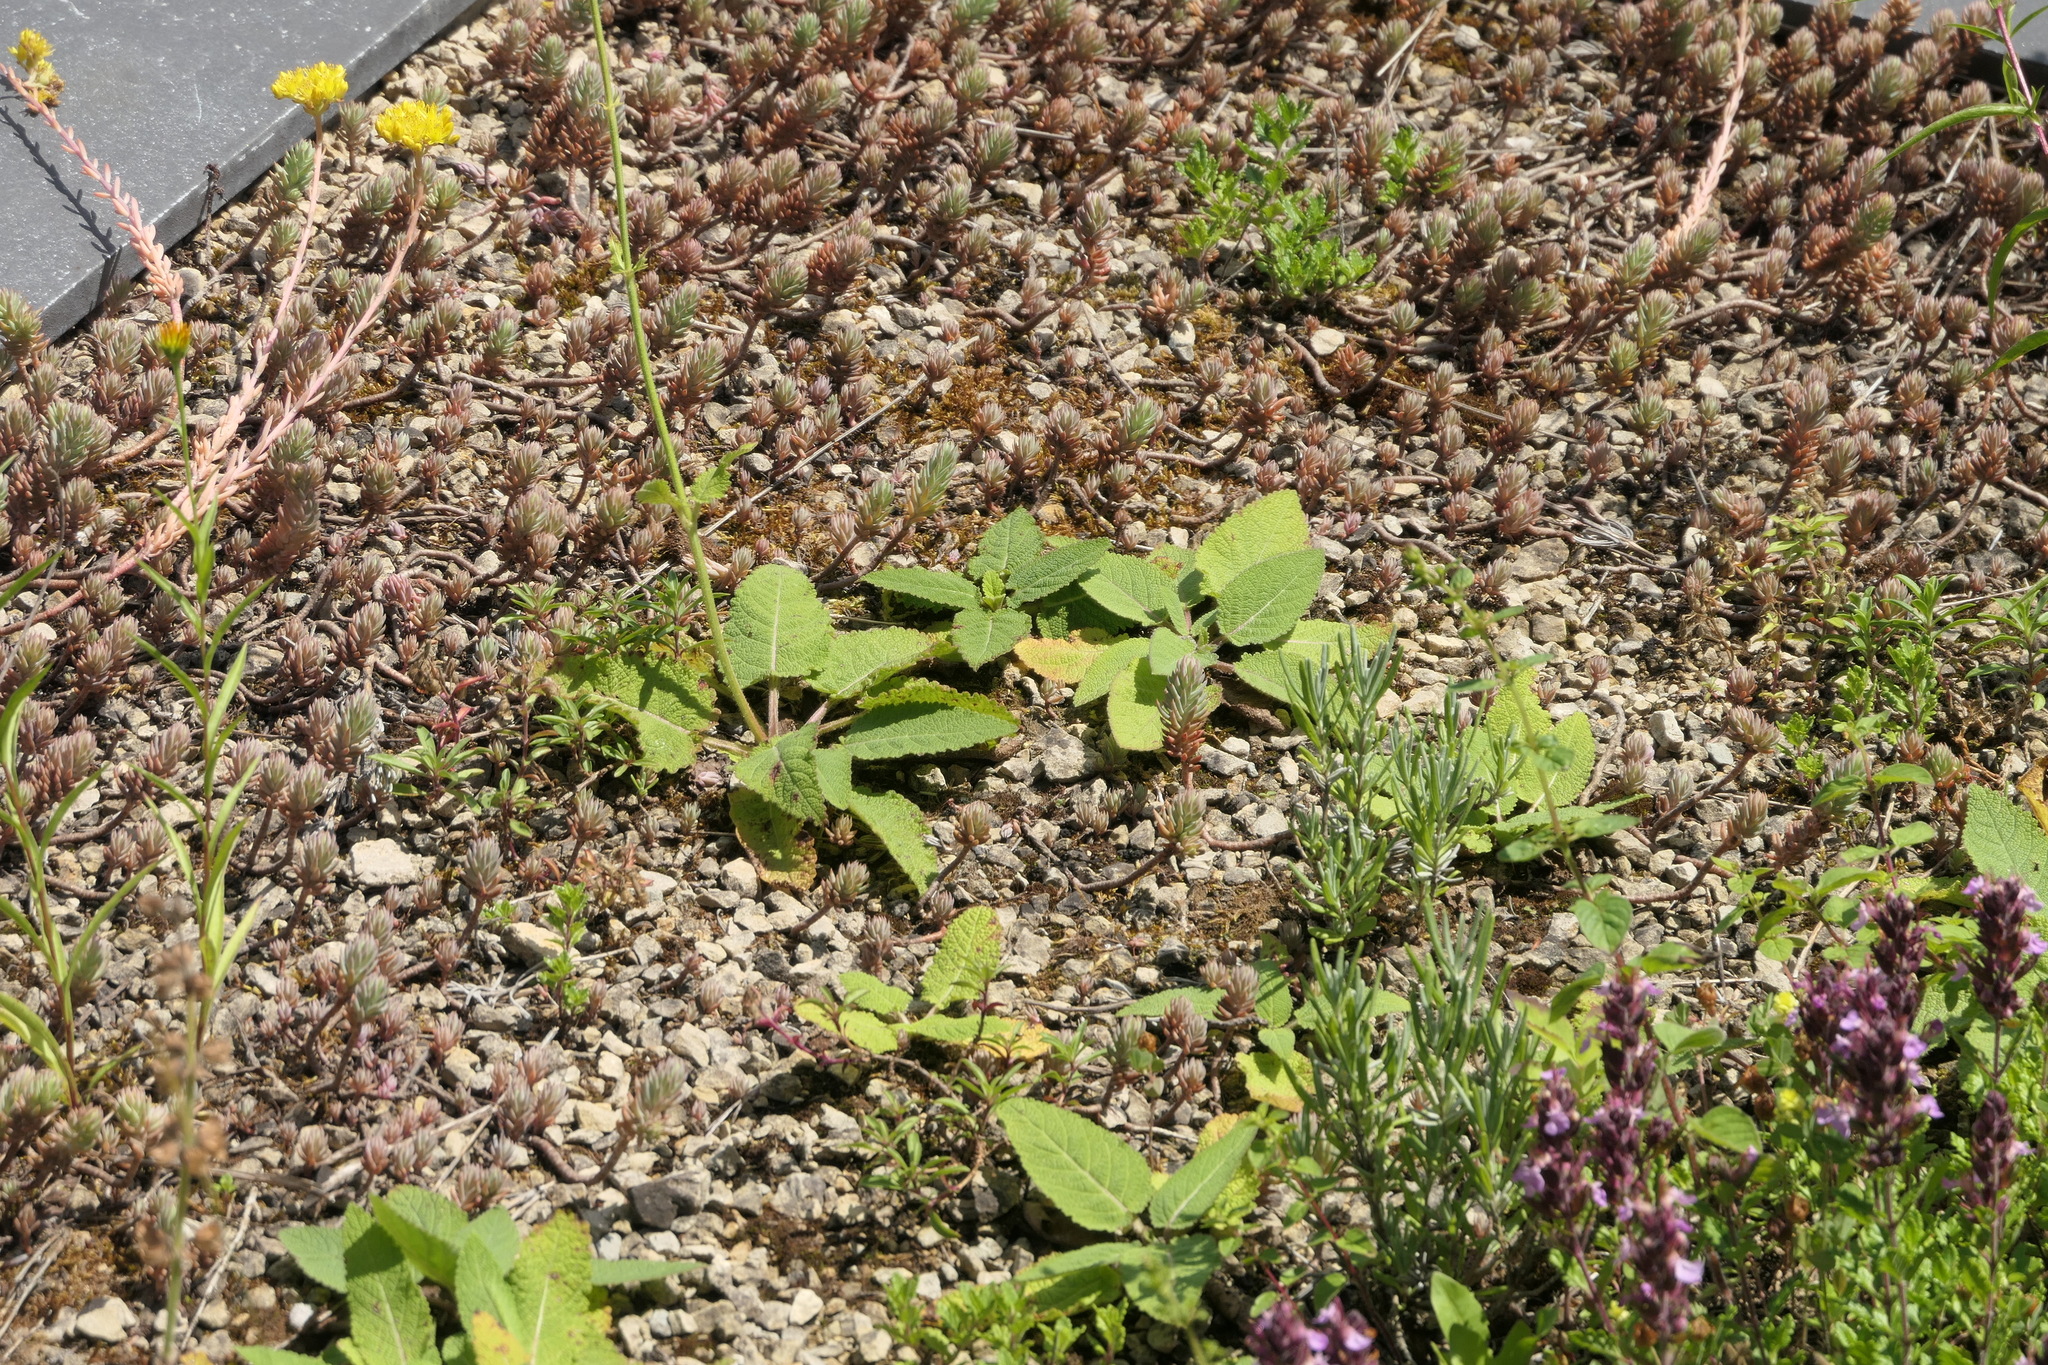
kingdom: Plantae
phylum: Tracheophyta
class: Magnoliopsida
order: Lamiales
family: Lamiaceae
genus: Salvia
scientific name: Salvia pratensis
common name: Meadow sage
